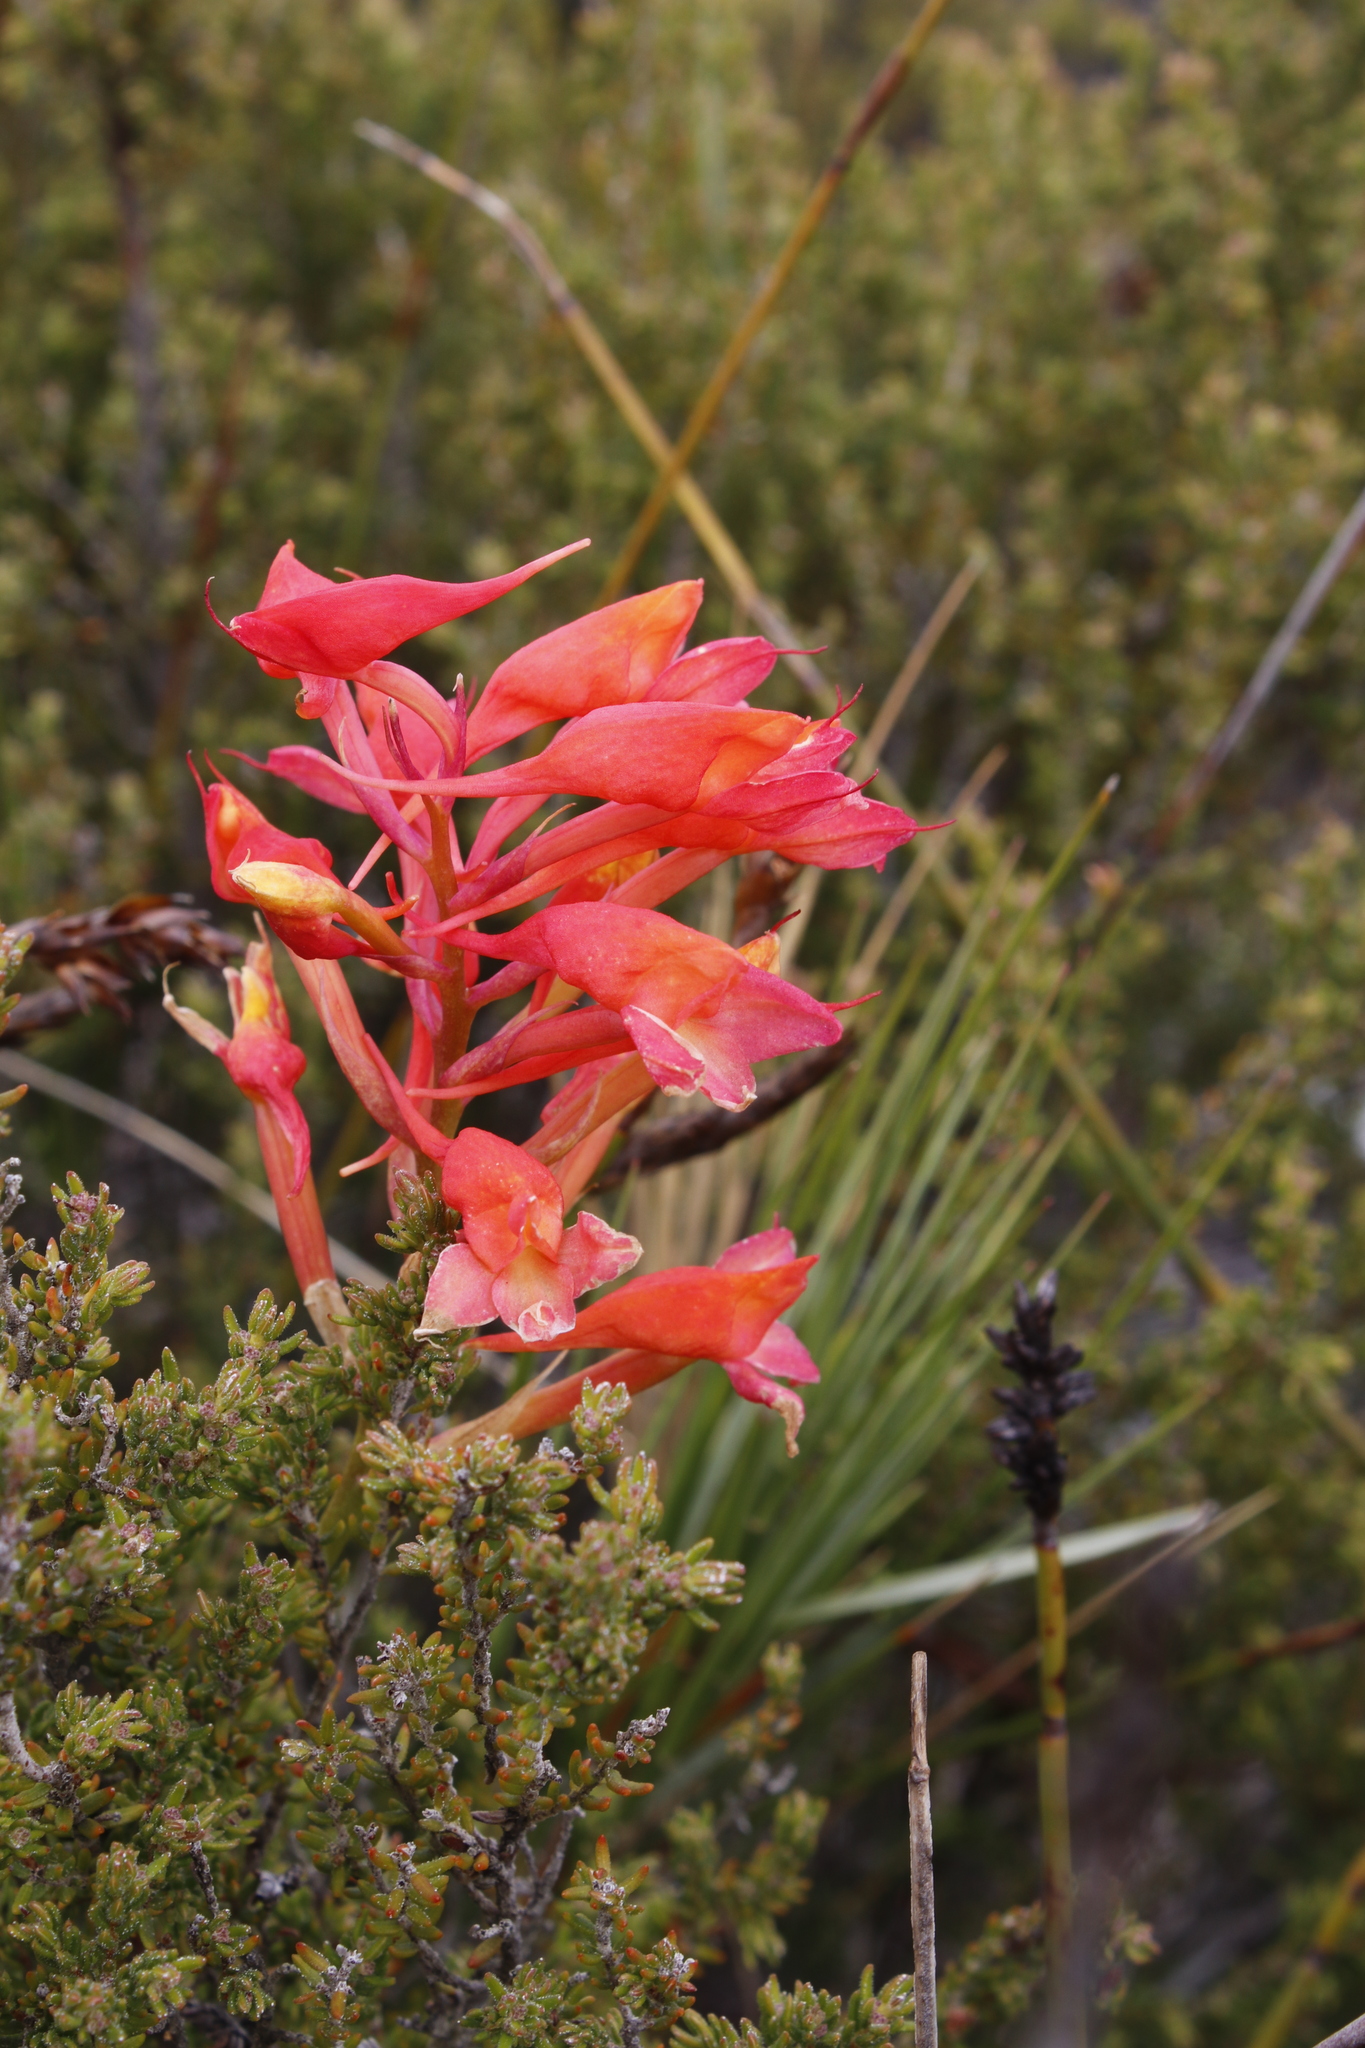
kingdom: Plantae
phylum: Tracheophyta
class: Liliopsida
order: Asparagales
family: Orchidaceae
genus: Disa
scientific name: Disa ferruginea
